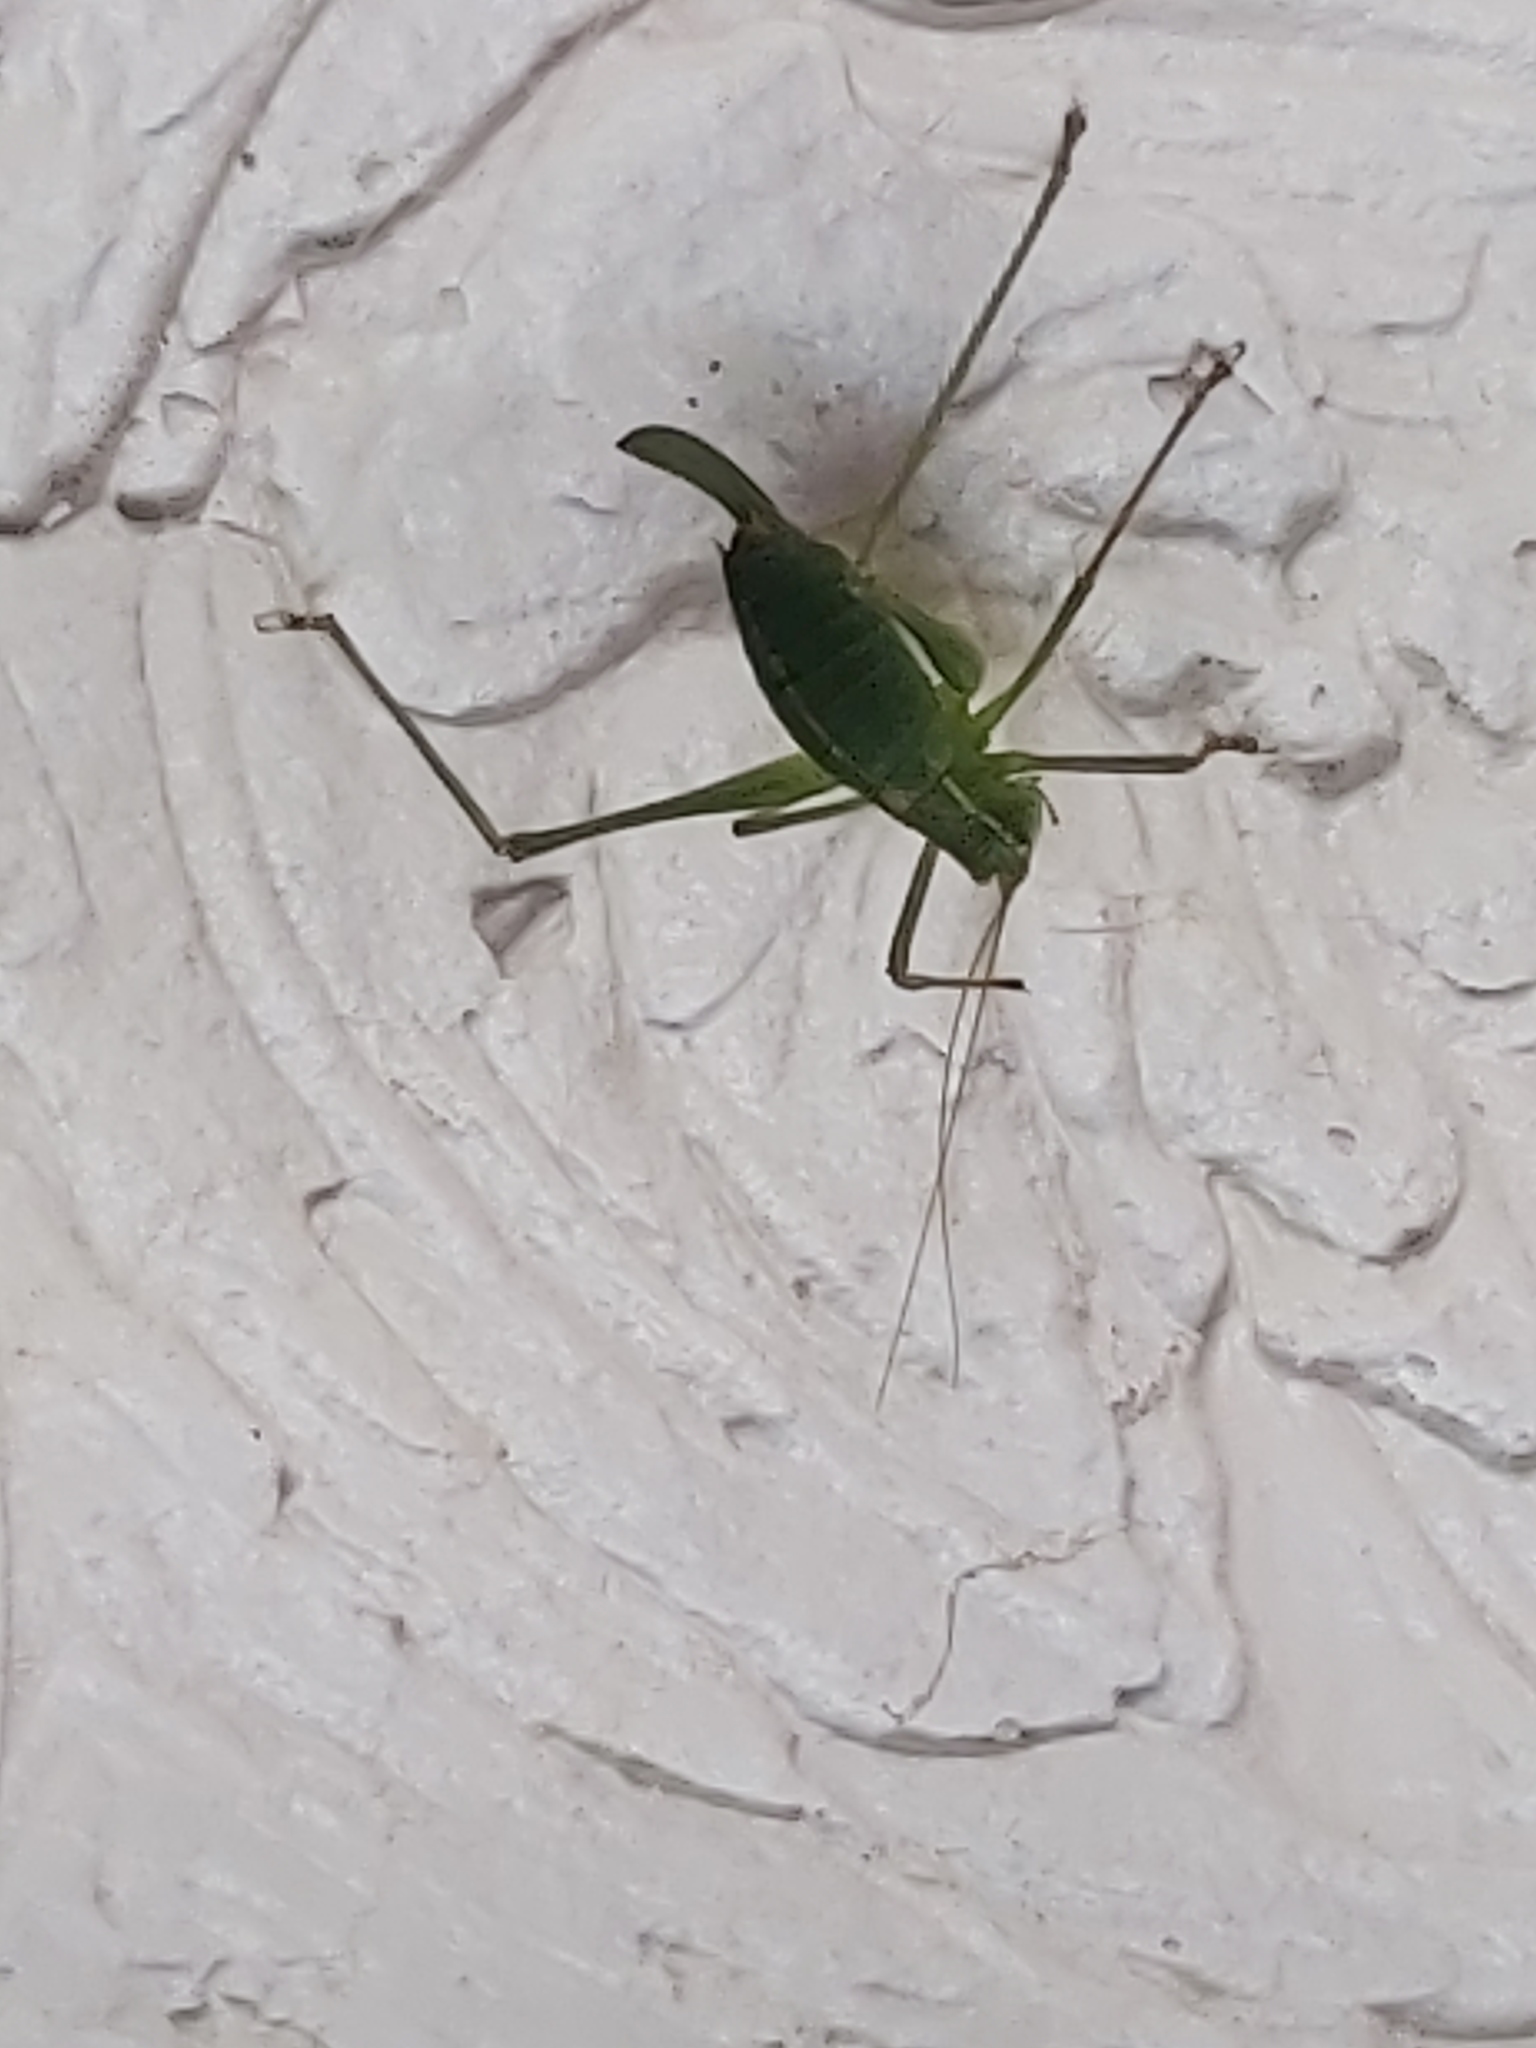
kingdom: Animalia
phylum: Arthropoda
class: Insecta
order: Orthoptera
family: Tettigoniidae
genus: Leptophyes
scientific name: Leptophyes punctatissima
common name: Speckled bush-cricket
